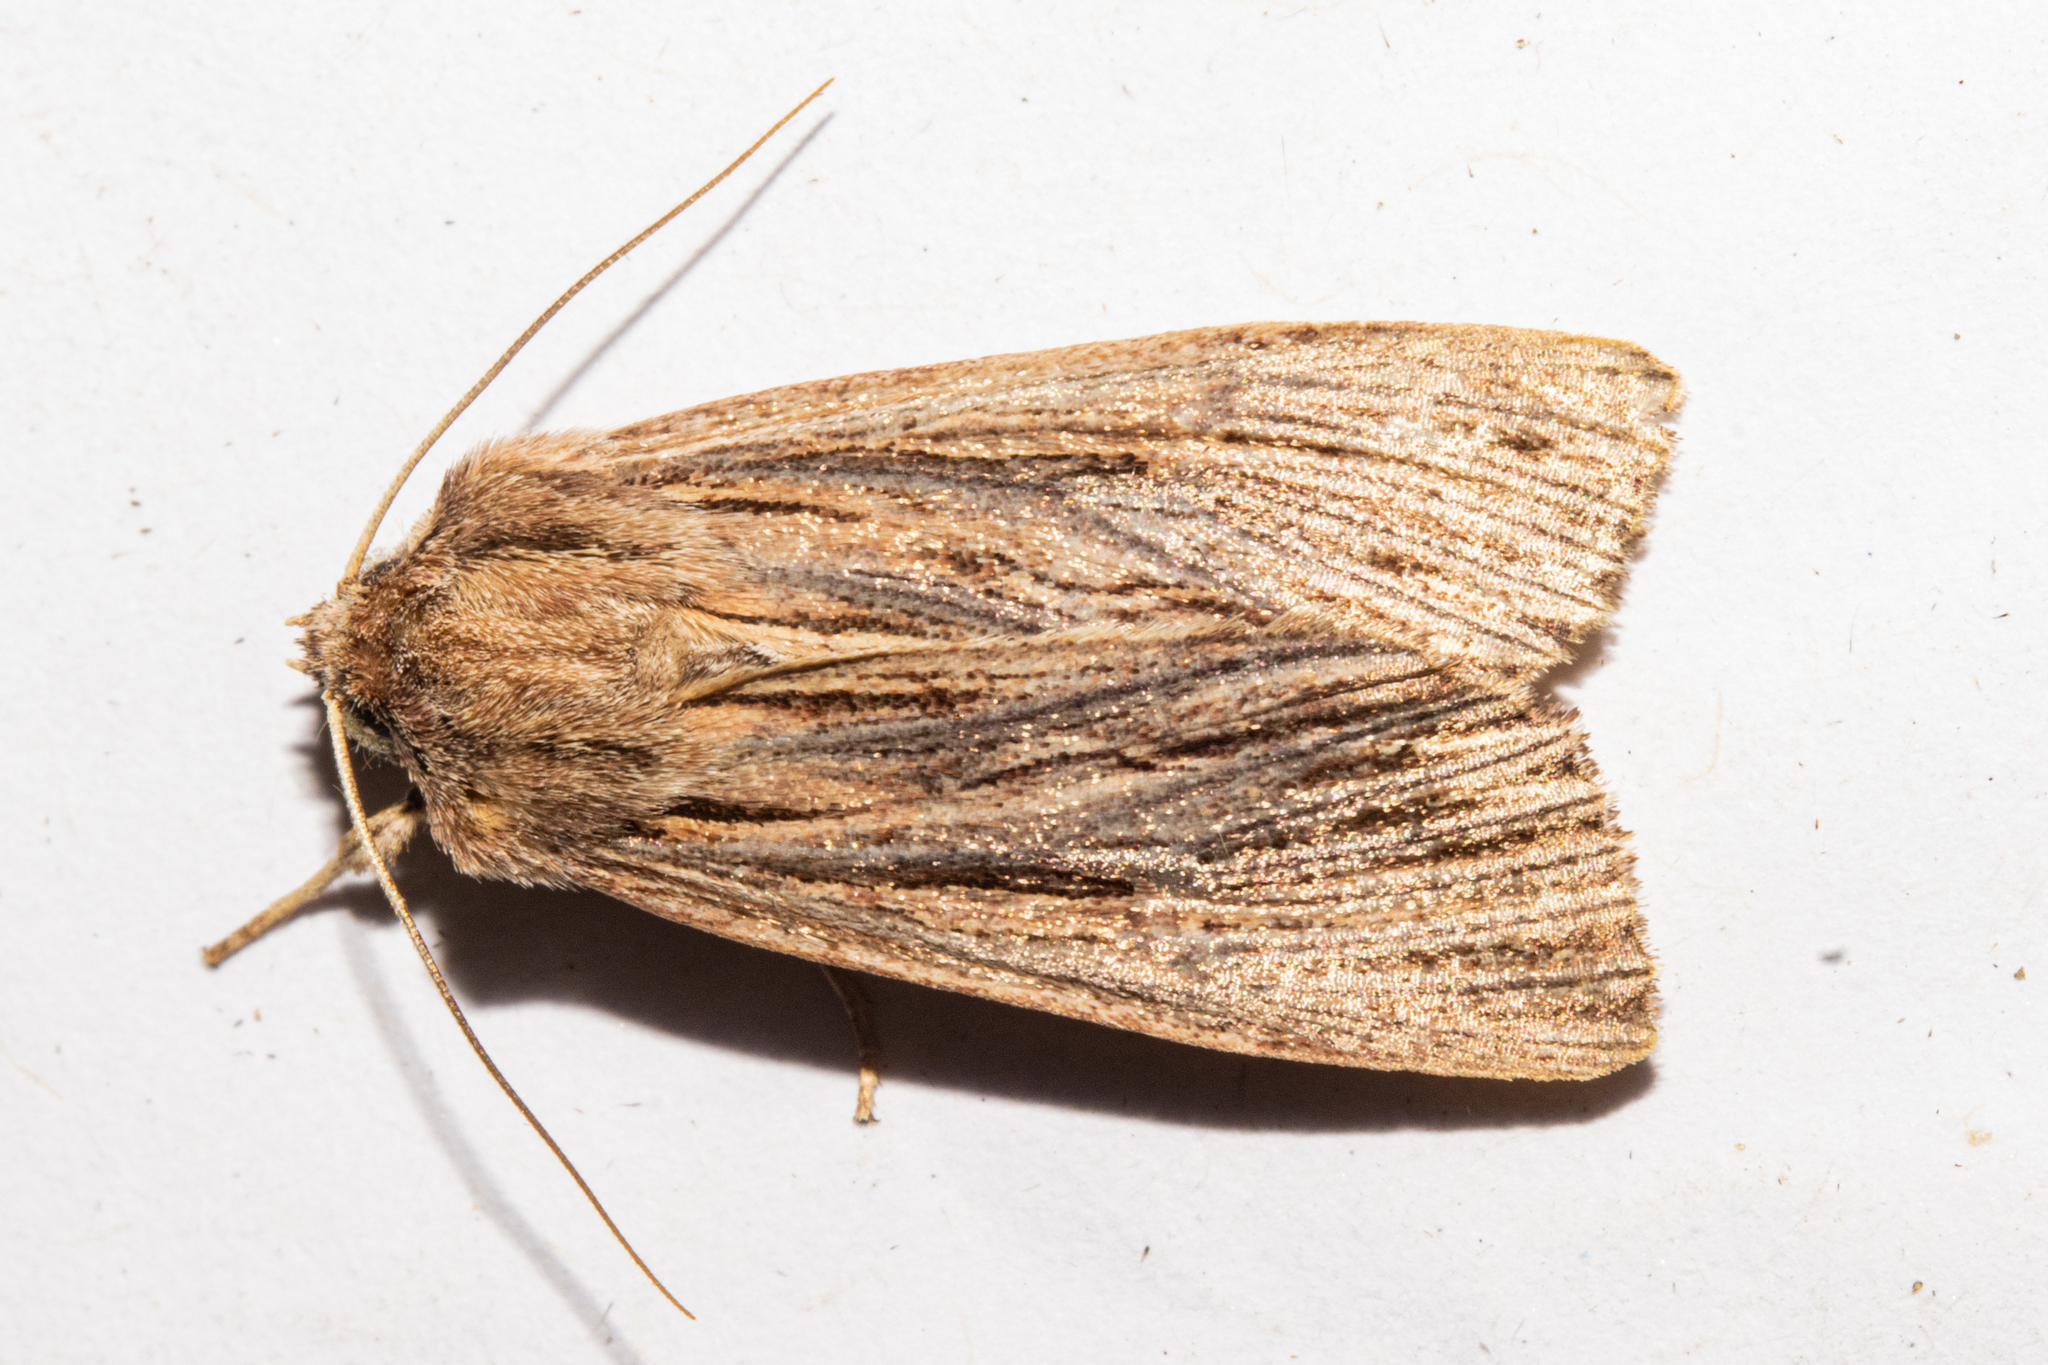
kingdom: Animalia
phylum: Arthropoda
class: Insecta
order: Lepidoptera
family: Noctuidae
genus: Ichneutica
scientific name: Ichneutica
